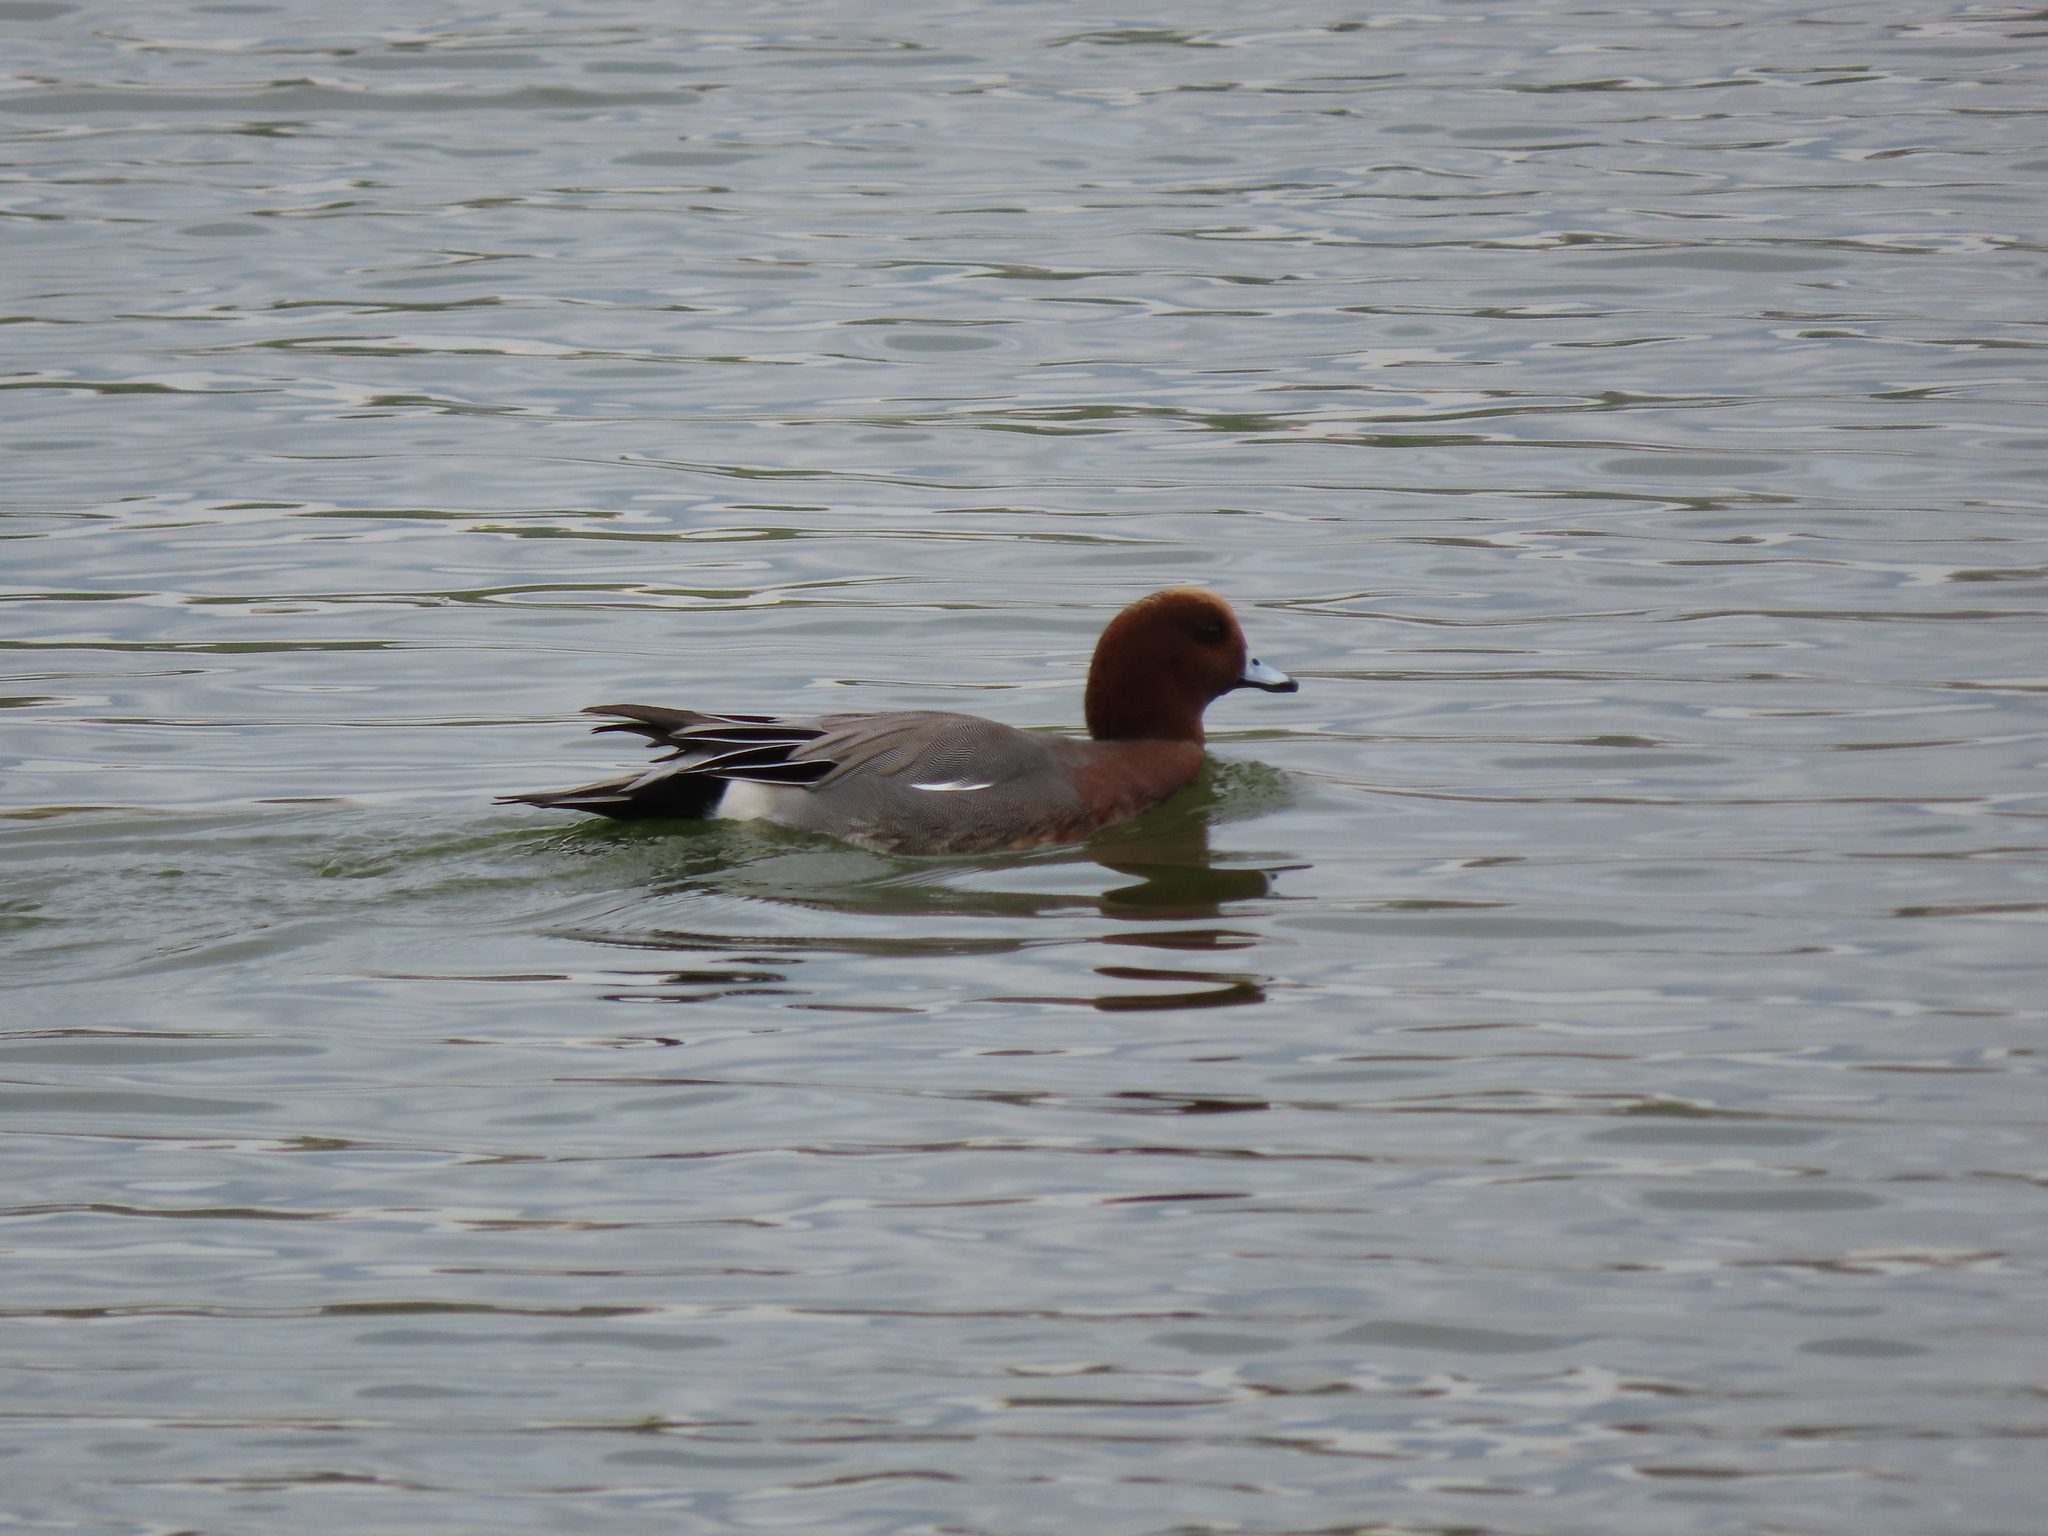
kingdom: Animalia
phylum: Chordata
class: Aves
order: Anseriformes
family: Anatidae
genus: Mareca
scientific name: Mareca penelope
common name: Eurasian wigeon
